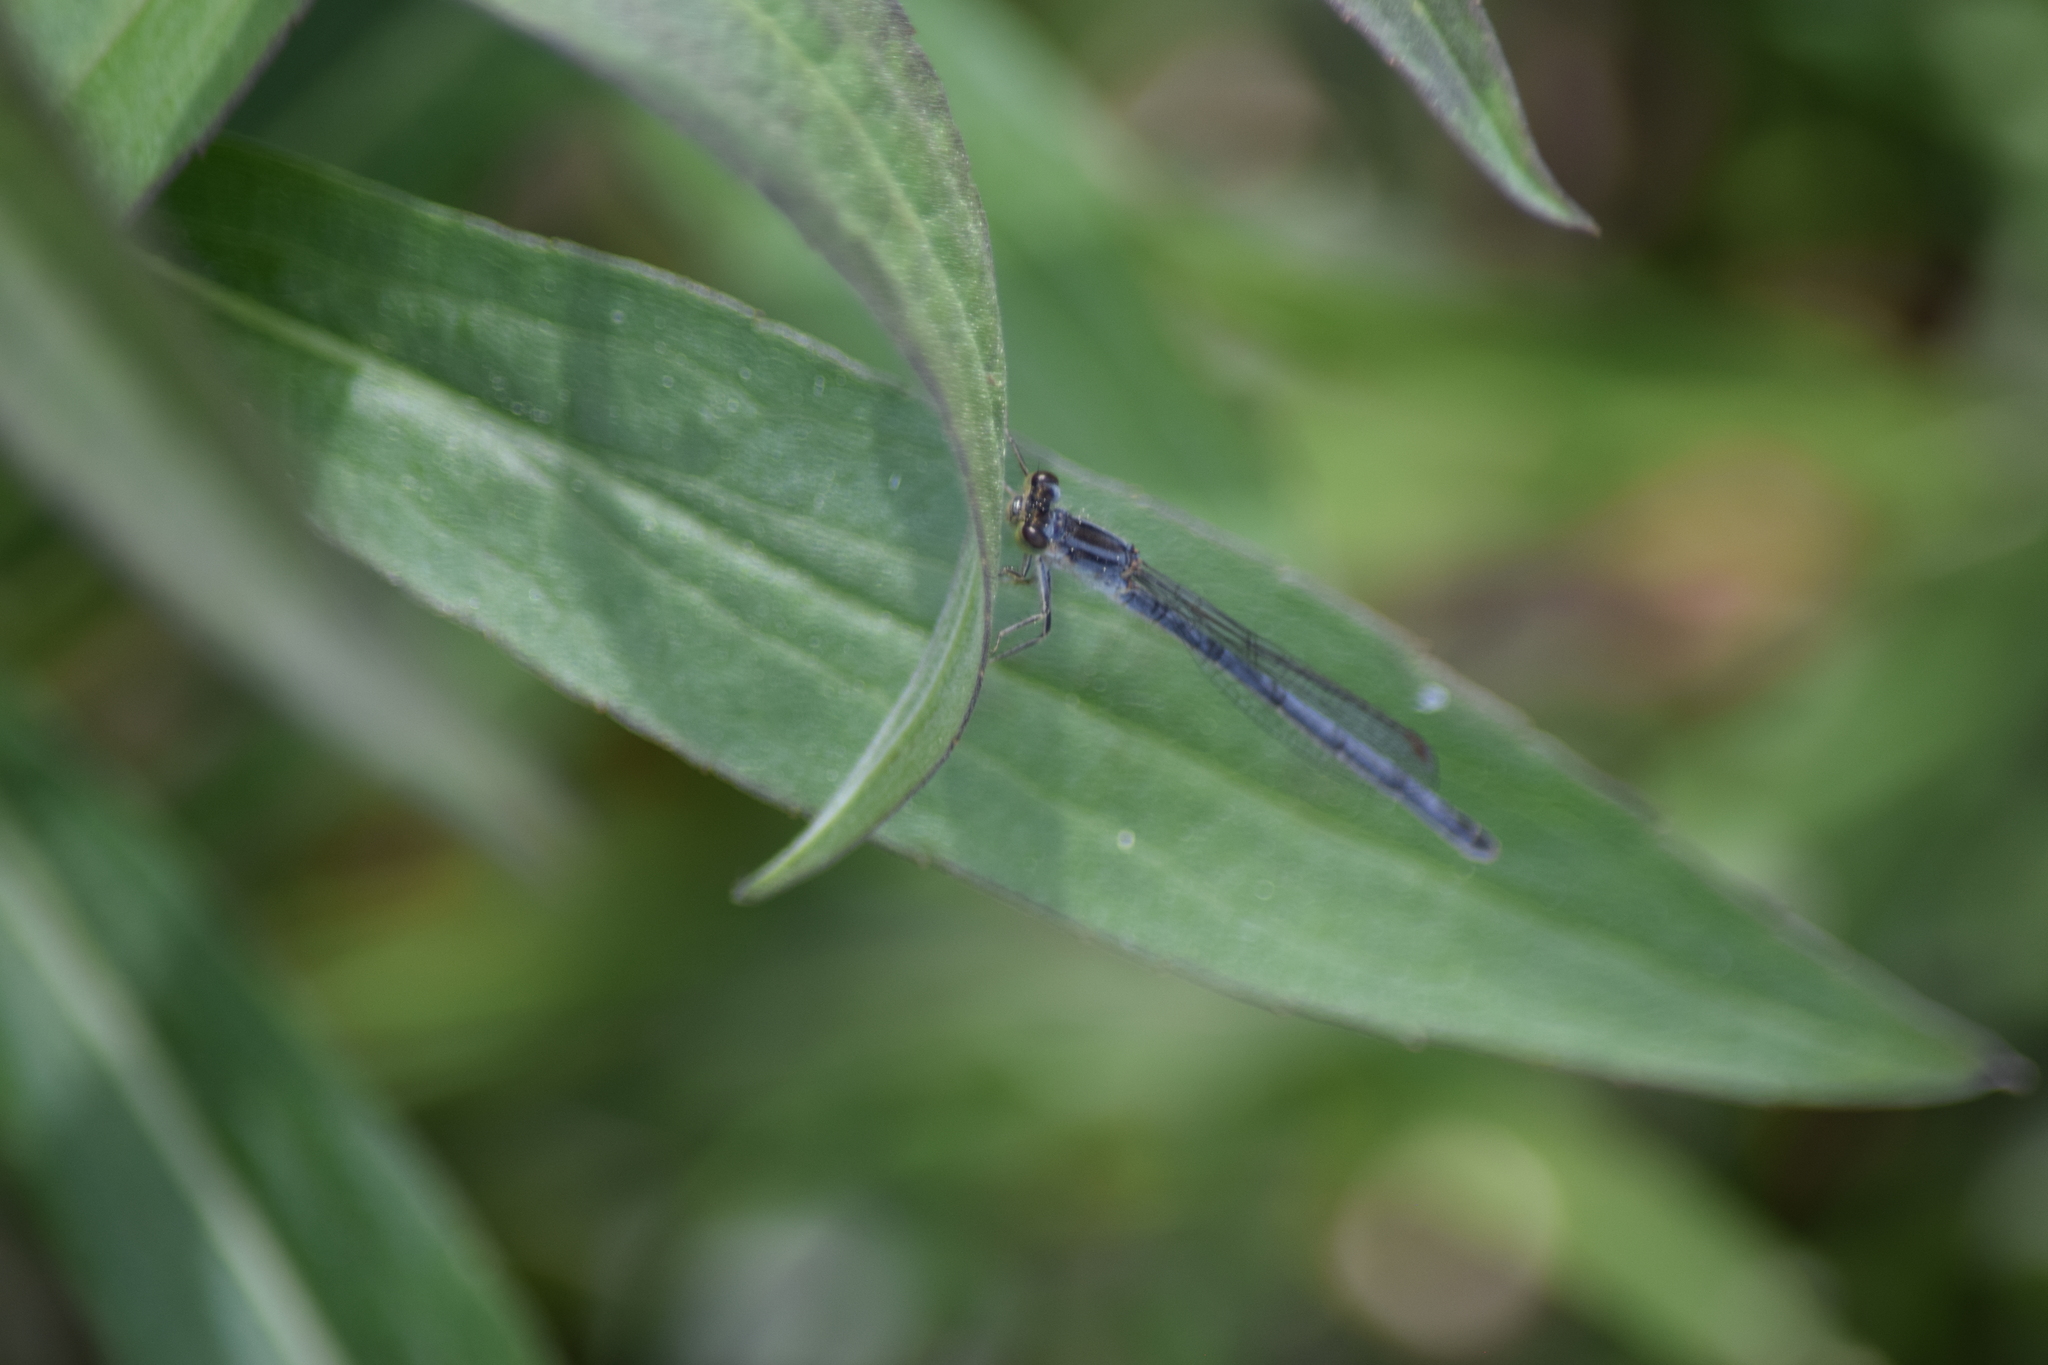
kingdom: Animalia
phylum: Arthropoda
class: Insecta
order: Odonata
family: Coenagrionidae
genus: Ischnura
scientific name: Ischnura verticalis
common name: Eastern forktail
